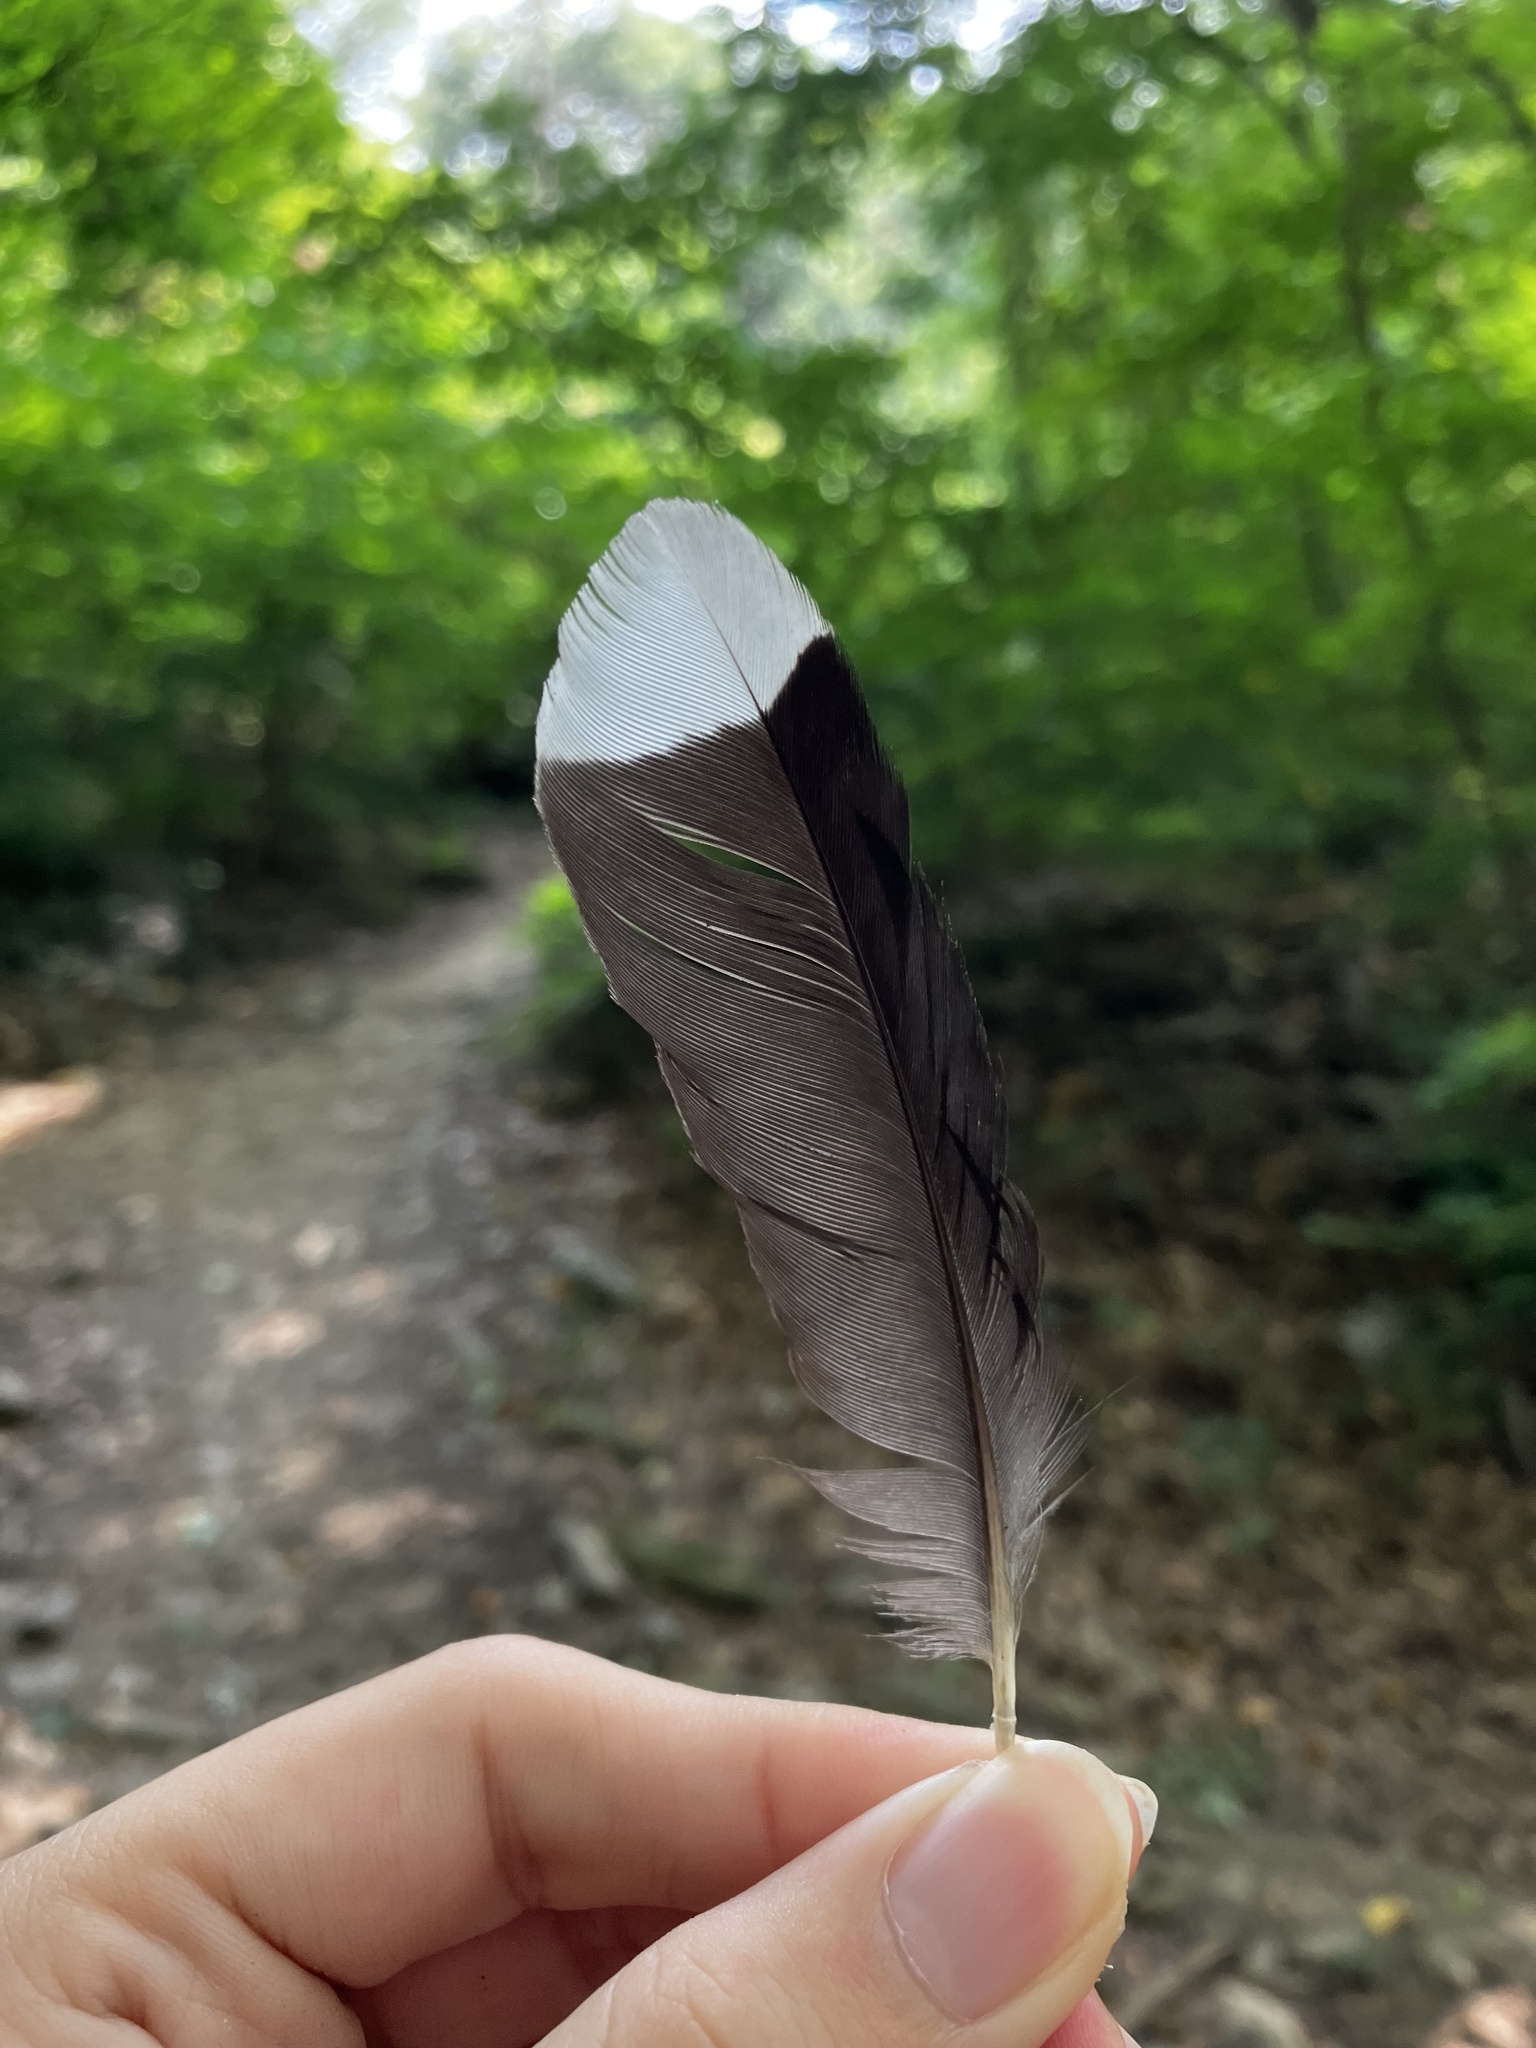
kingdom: Animalia
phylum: Chordata
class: Aves
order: Passeriformes
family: Corvidae
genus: Cyanocitta
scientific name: Cyanocitta cristata
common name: Blue jay
